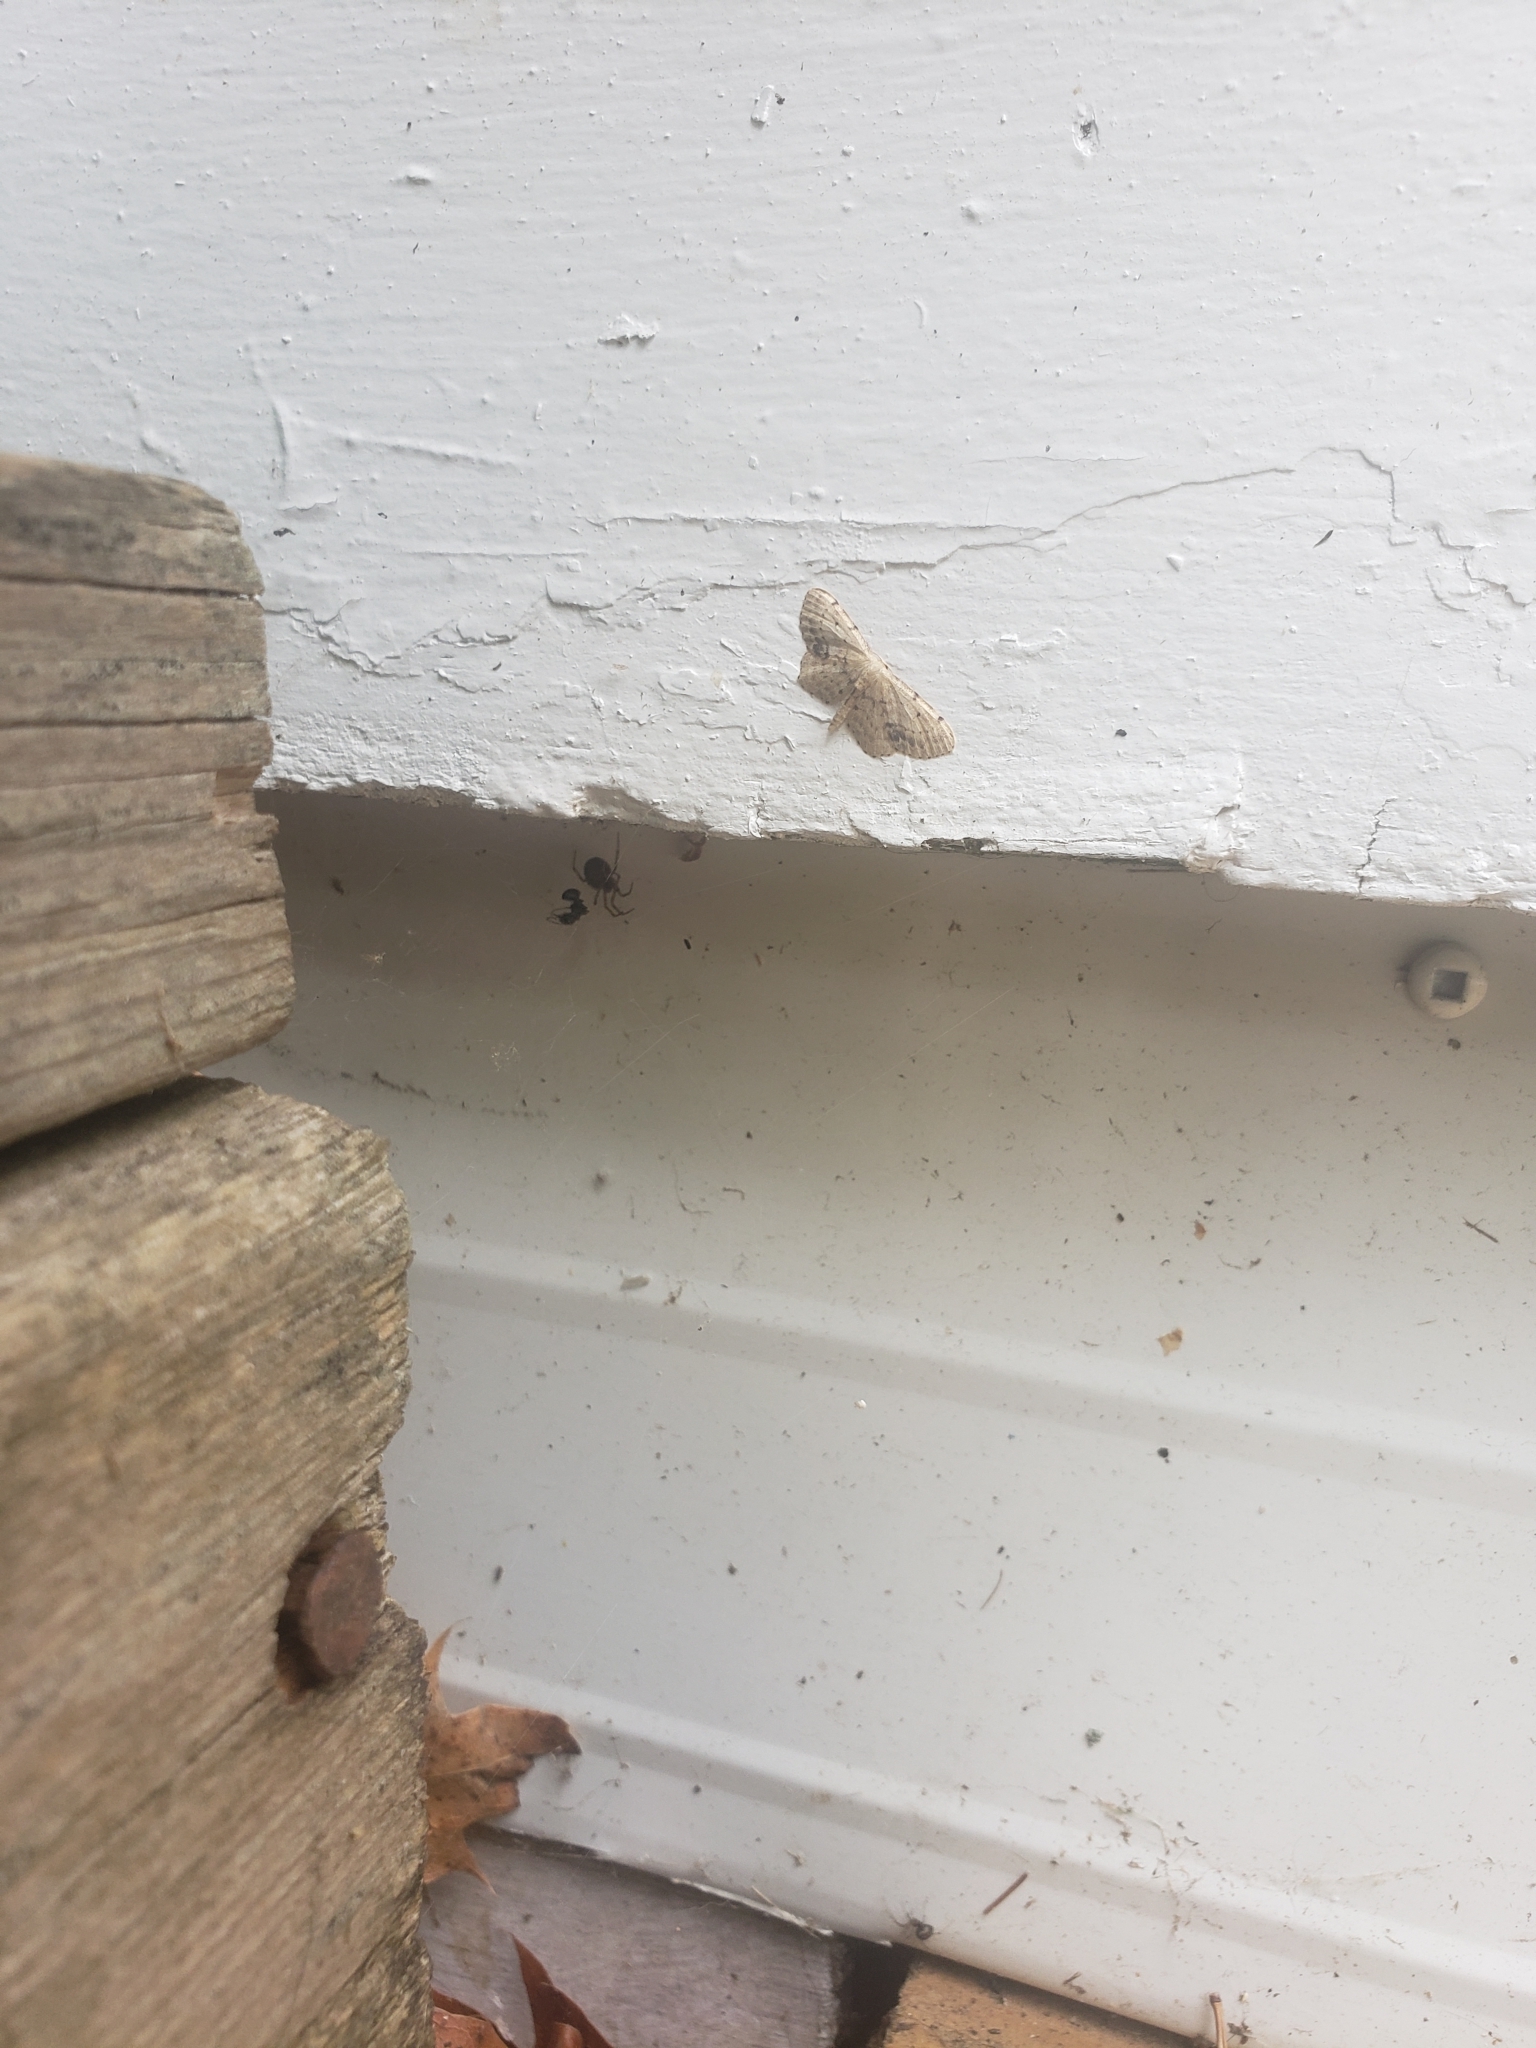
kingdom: Animalia
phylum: Arthropoda
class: Insecta
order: Lepidoptera
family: Geometridae
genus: Idaea
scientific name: Idaea dimidiata
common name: Single-dotted wave
